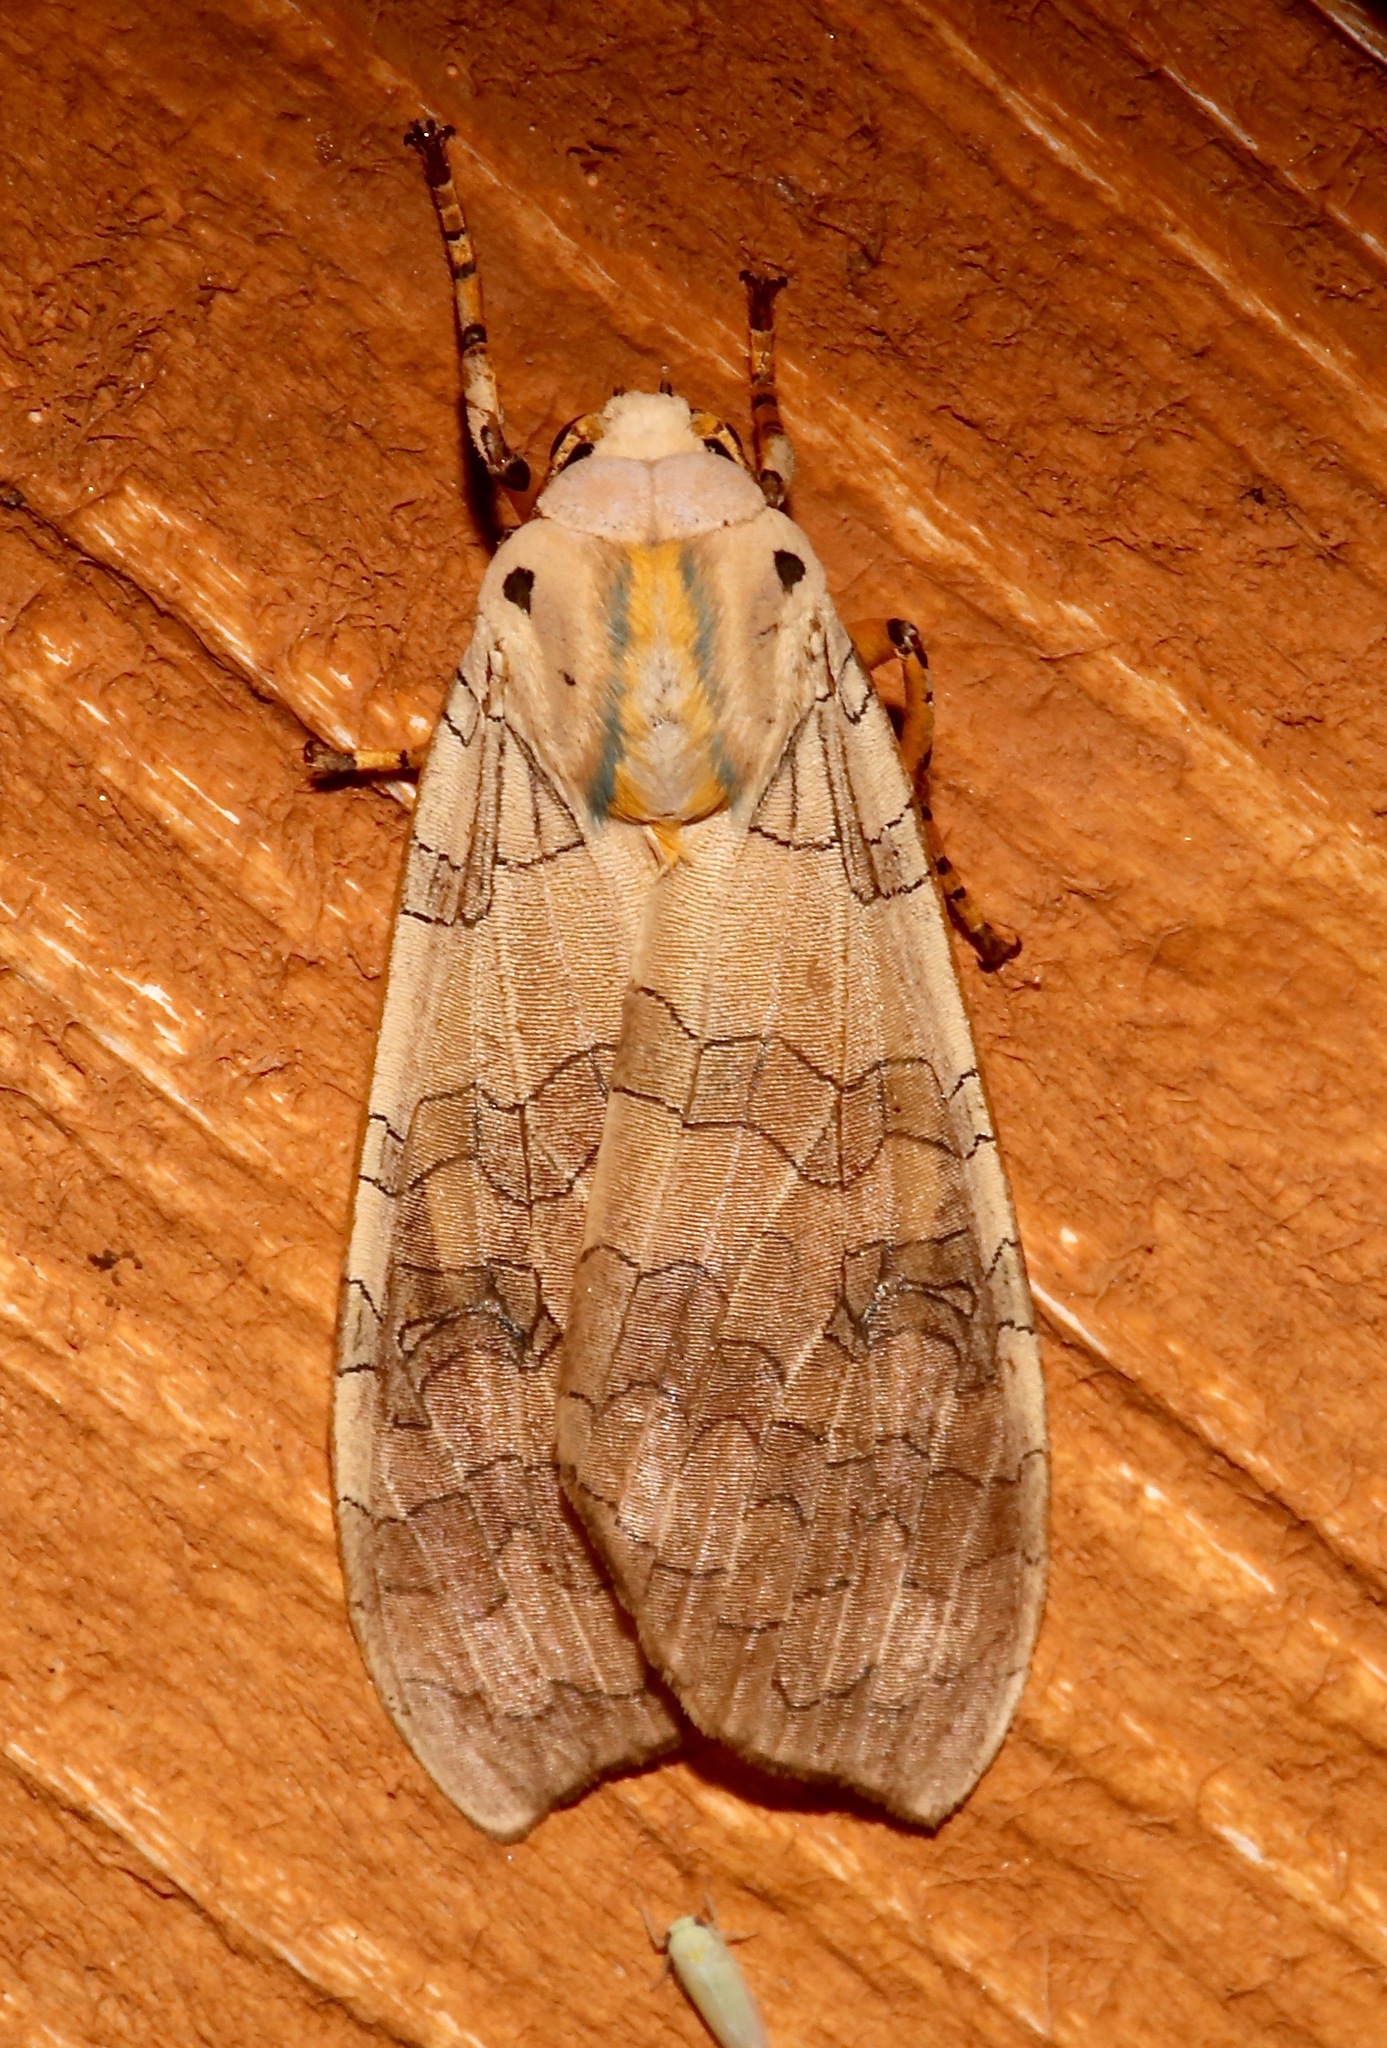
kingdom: Animalia
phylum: Arthropoda
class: Insecta
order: Lepidoptera
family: Erebidae
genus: Halysidota
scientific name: Halysidota tessellaris
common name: Banded tussock moth
